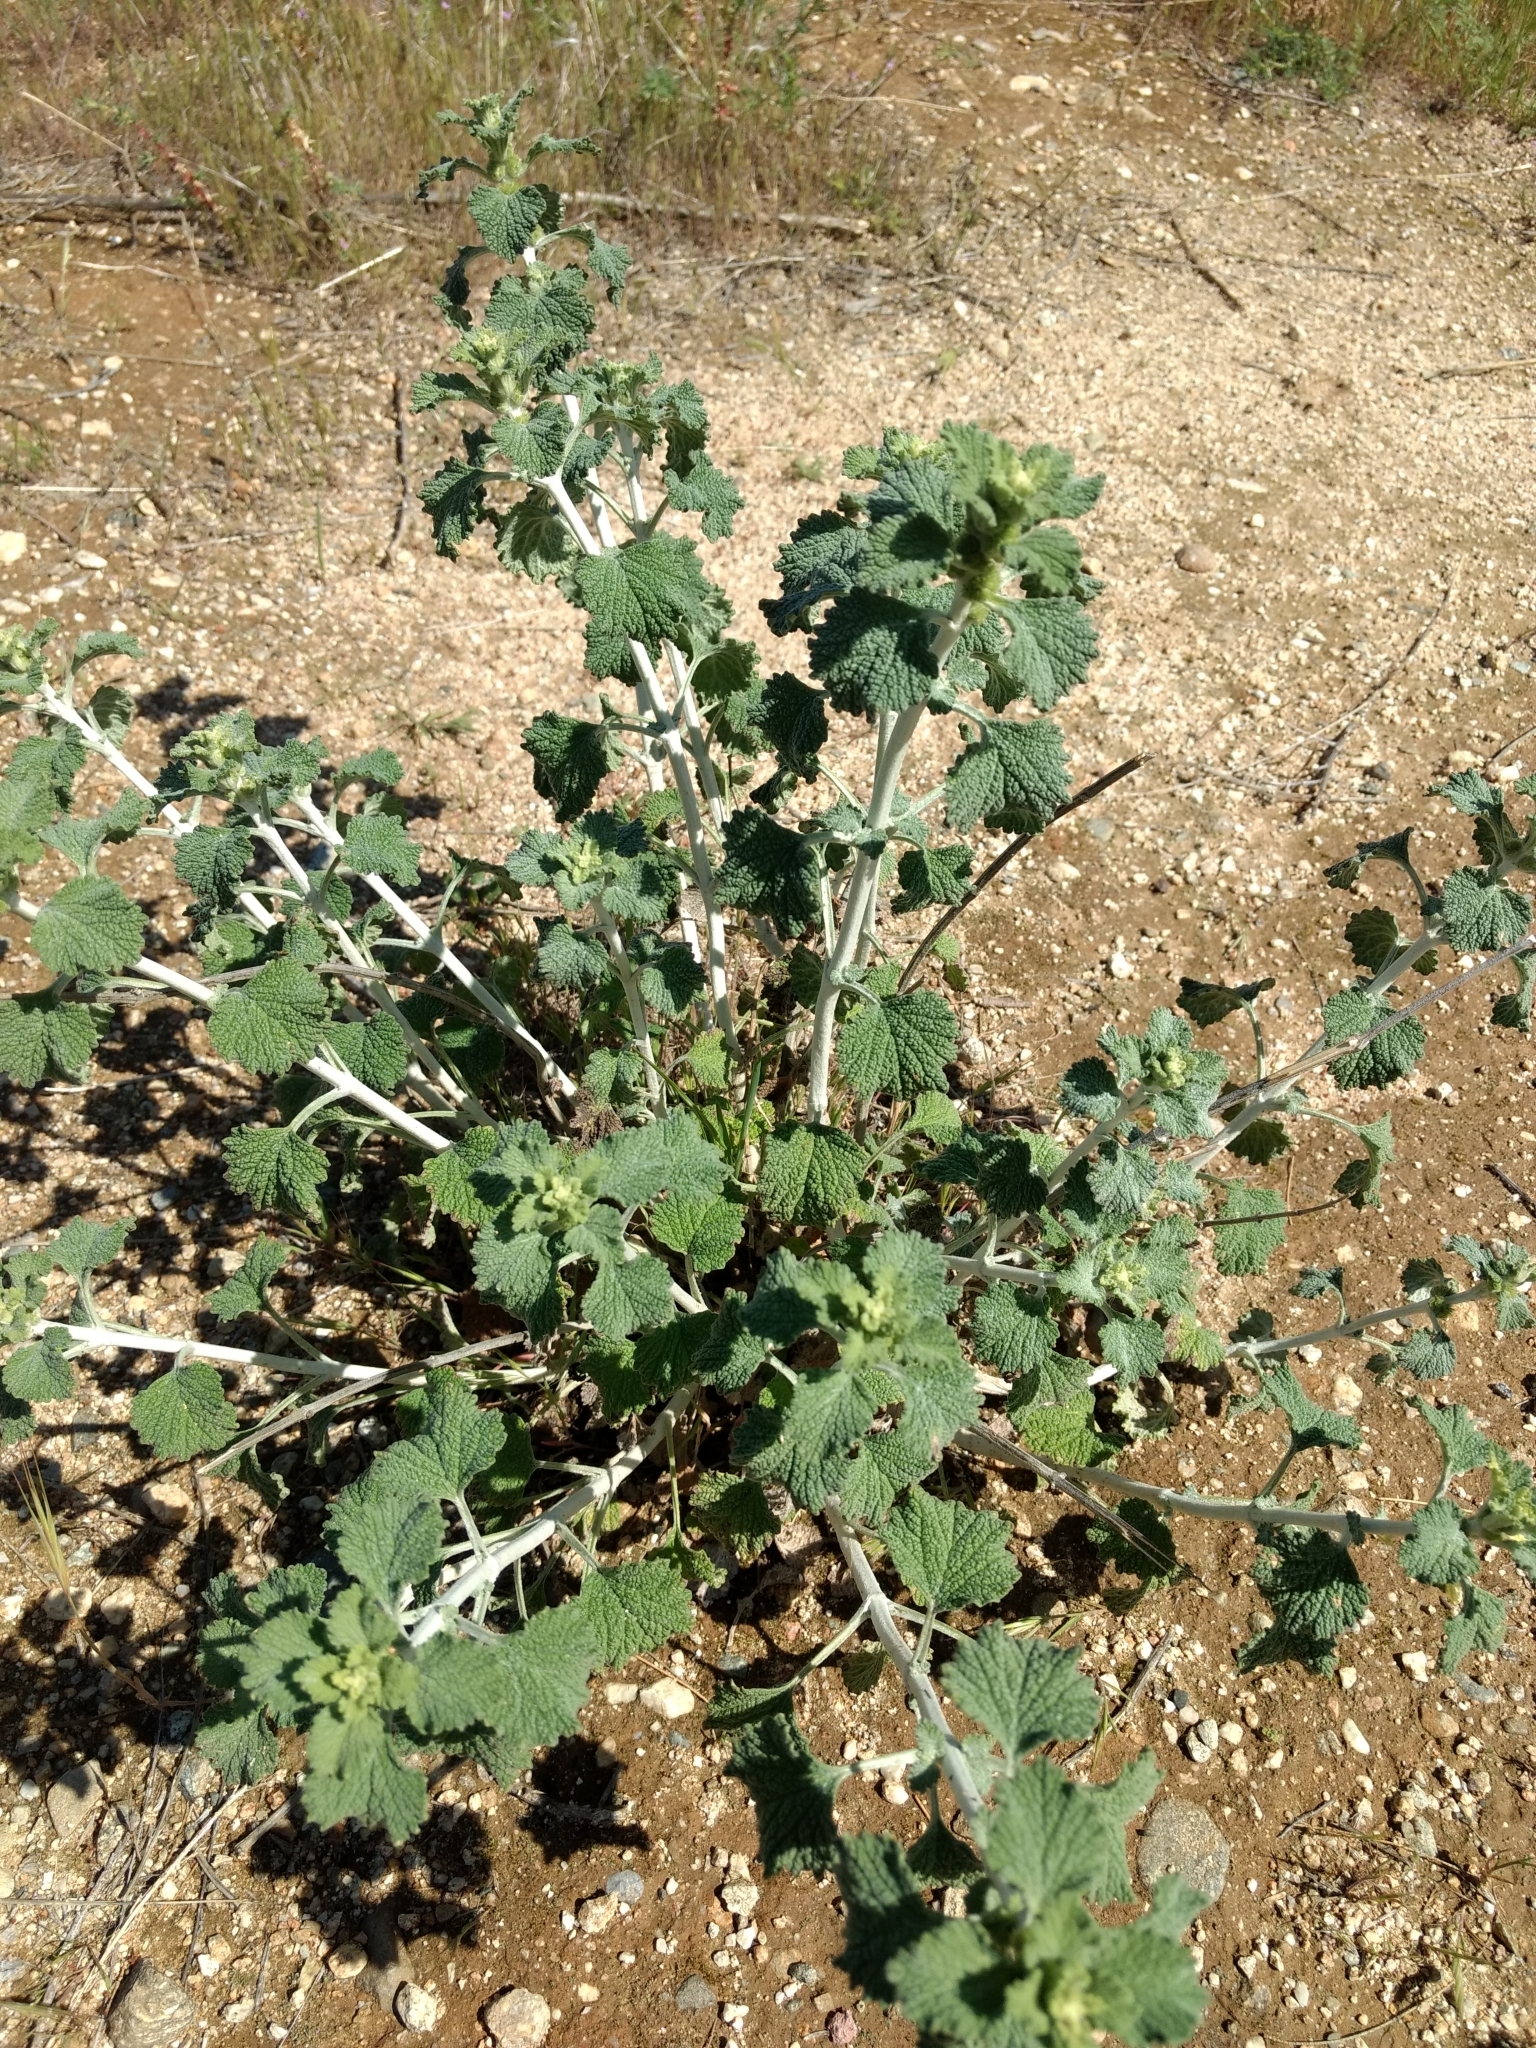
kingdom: Plantae
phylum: Tracheophyta
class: Magnoliopsida
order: Lamiales
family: Lamiaceae
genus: Marrubium
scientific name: Marrubium vulgare
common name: Horehound
